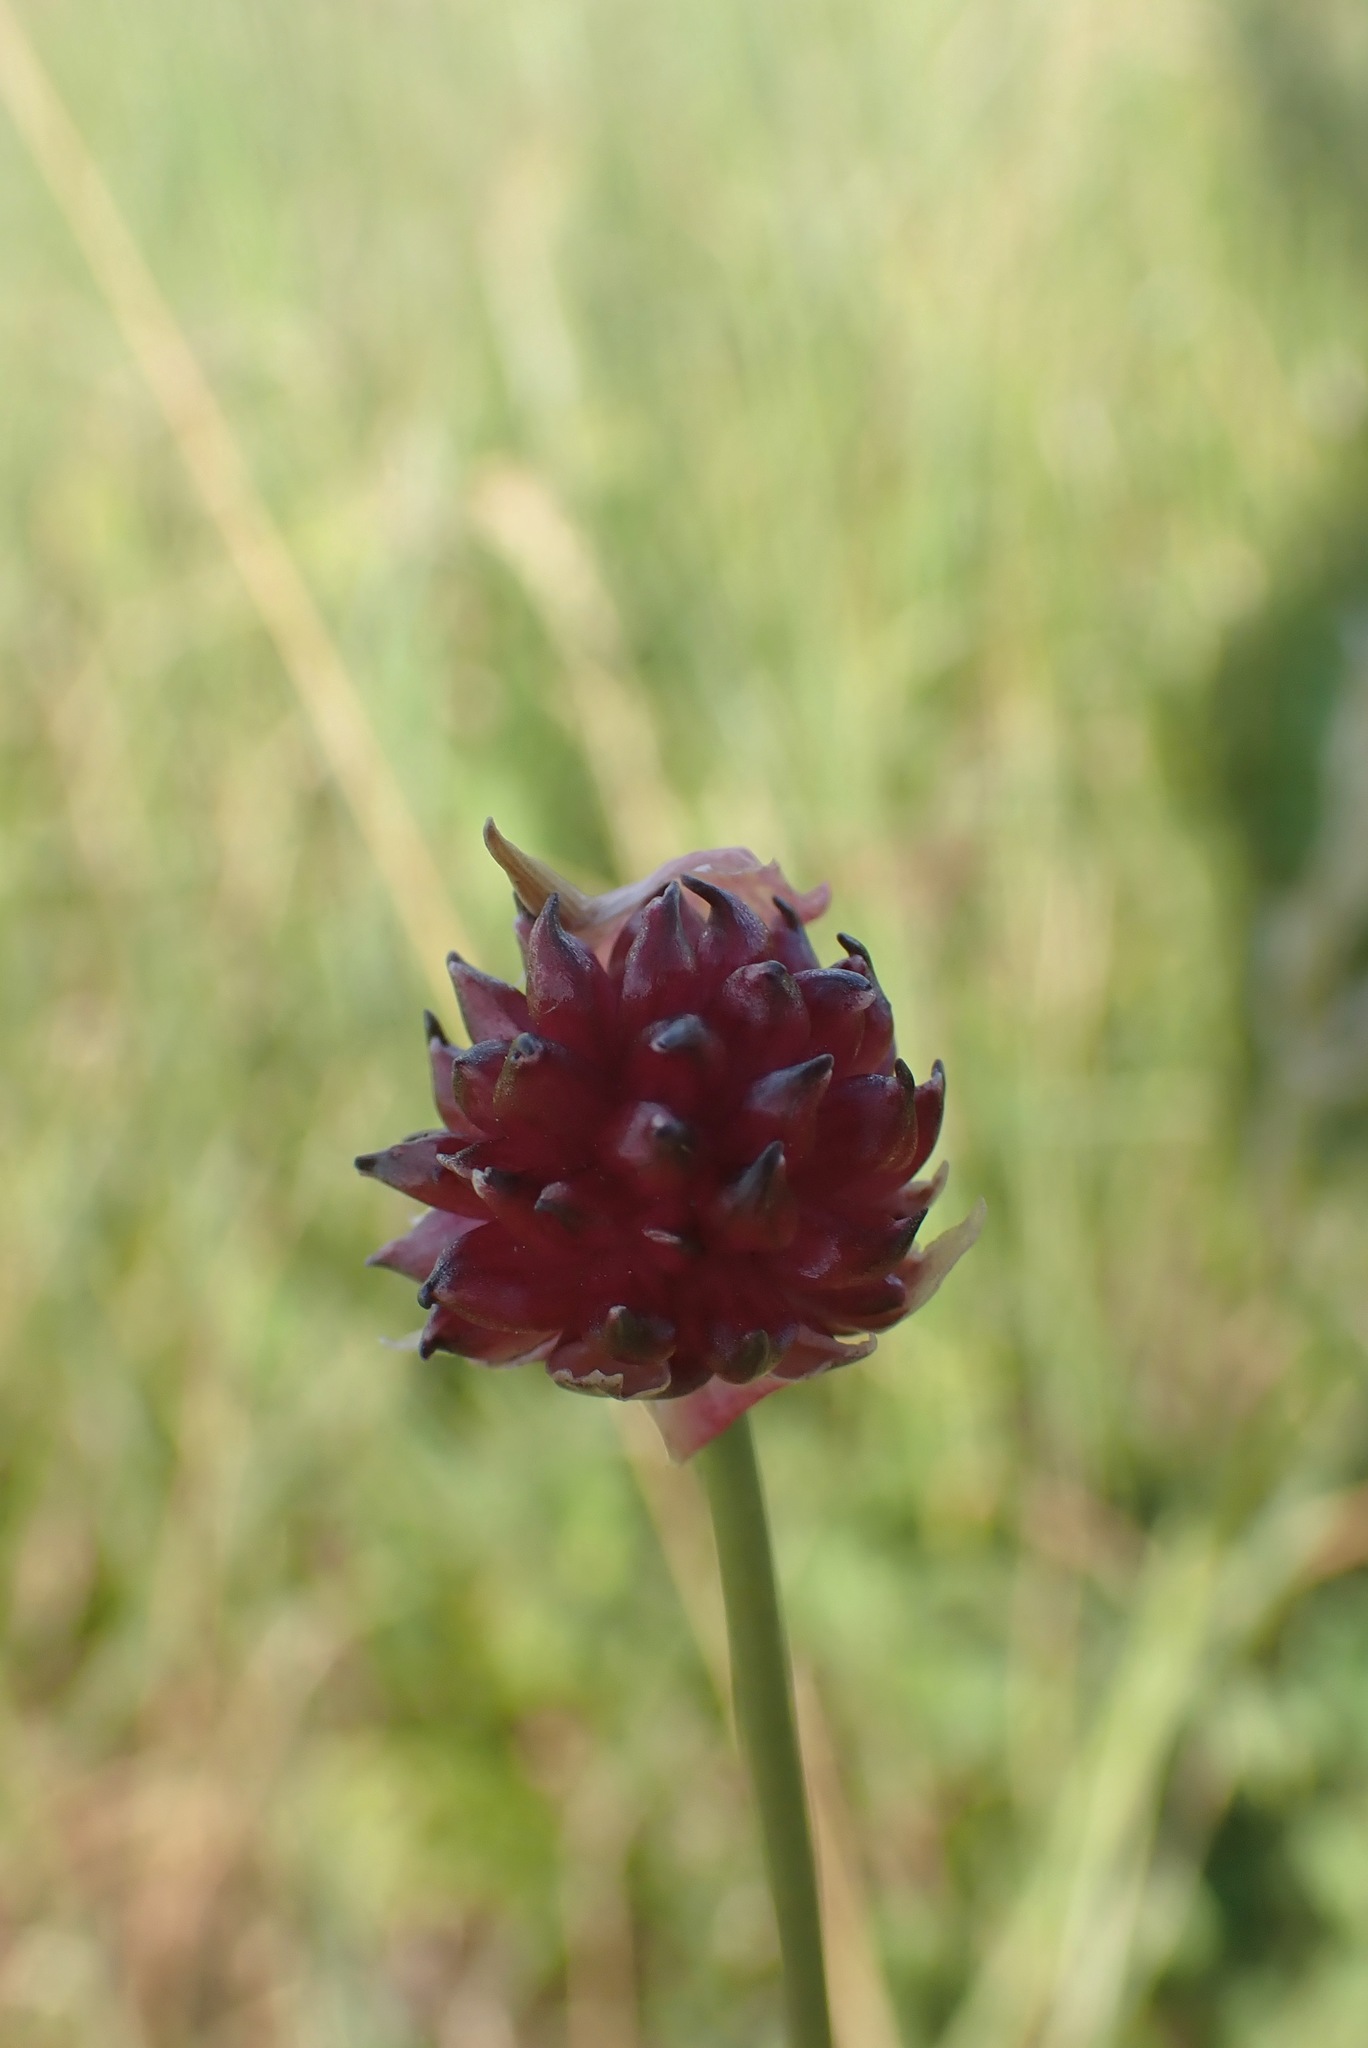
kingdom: Plantae
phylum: Tracheophyta
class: Liliopsida
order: Asparagales
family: Amaryllidaceae
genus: Allium
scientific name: Allium vineale
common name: Crow garlic
